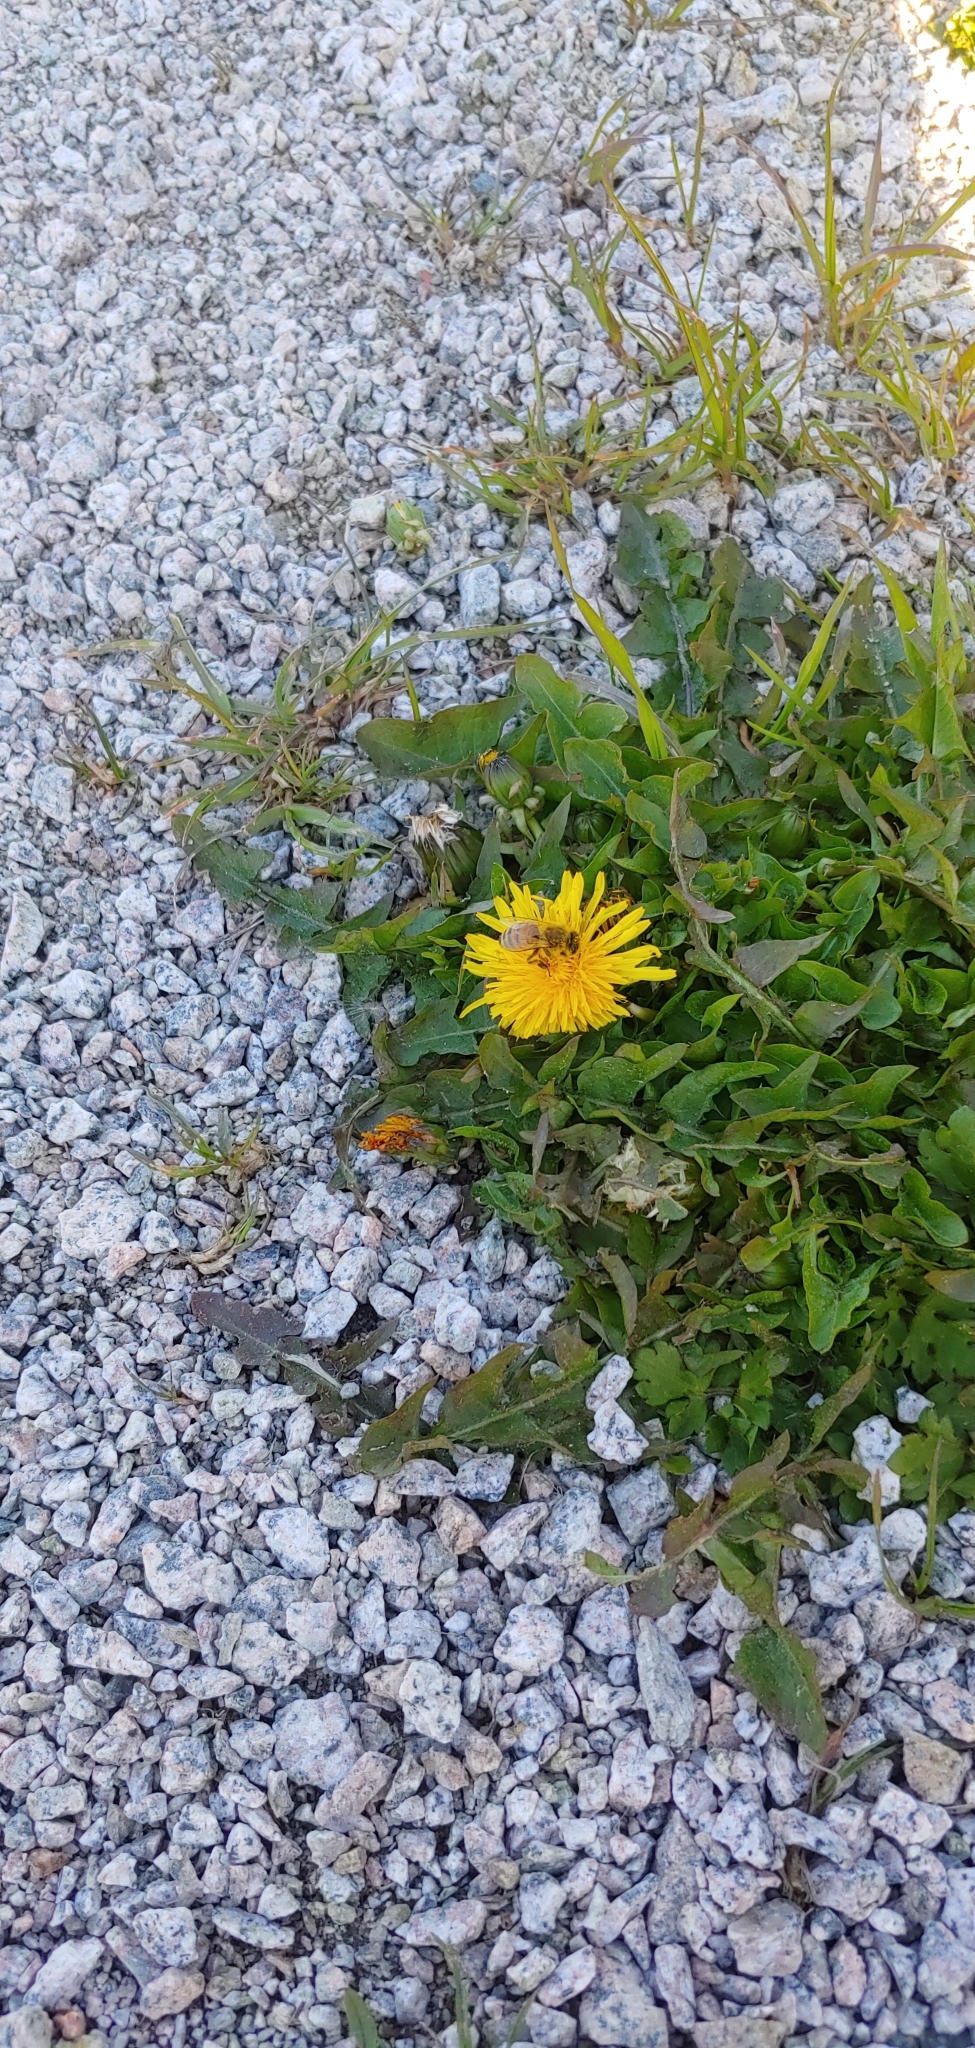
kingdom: Plantae
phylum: Tracheophyta
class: Magnoliopsida
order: Asterales
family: Asteraceae
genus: Taraxacum
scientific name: Taraxacum officinale
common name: Common dandelion
